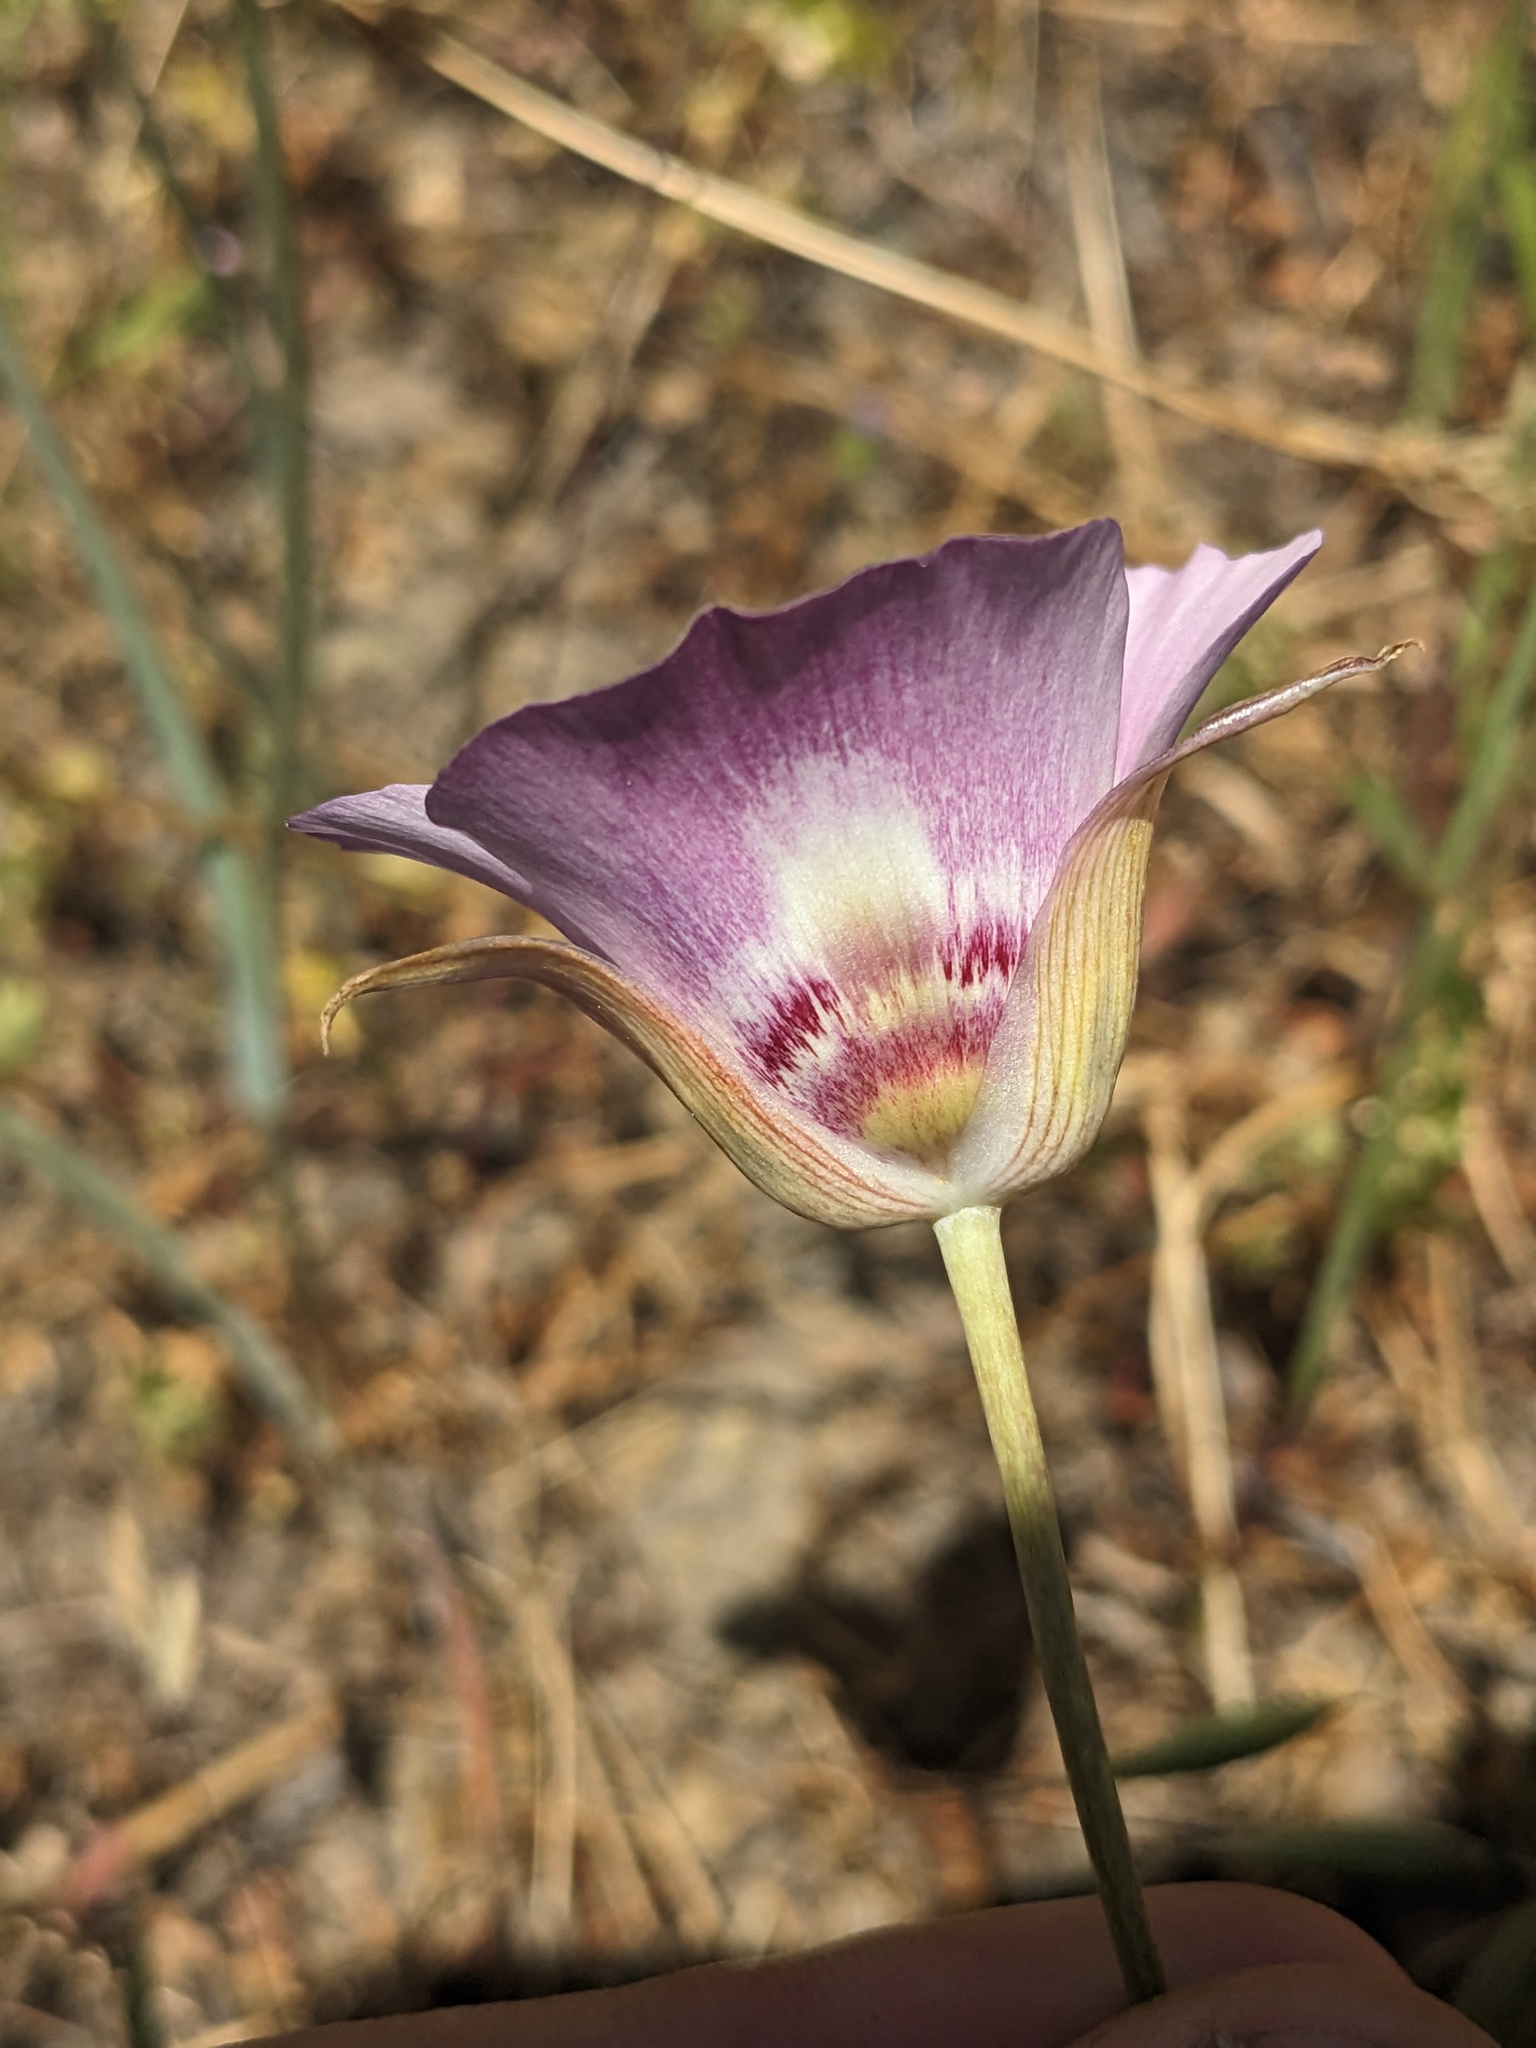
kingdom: Plantae
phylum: Tracheophyta
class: Liliopsida
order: Liliales
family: Liliaceae
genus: Calochortus
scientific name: Calochortus argillosus
